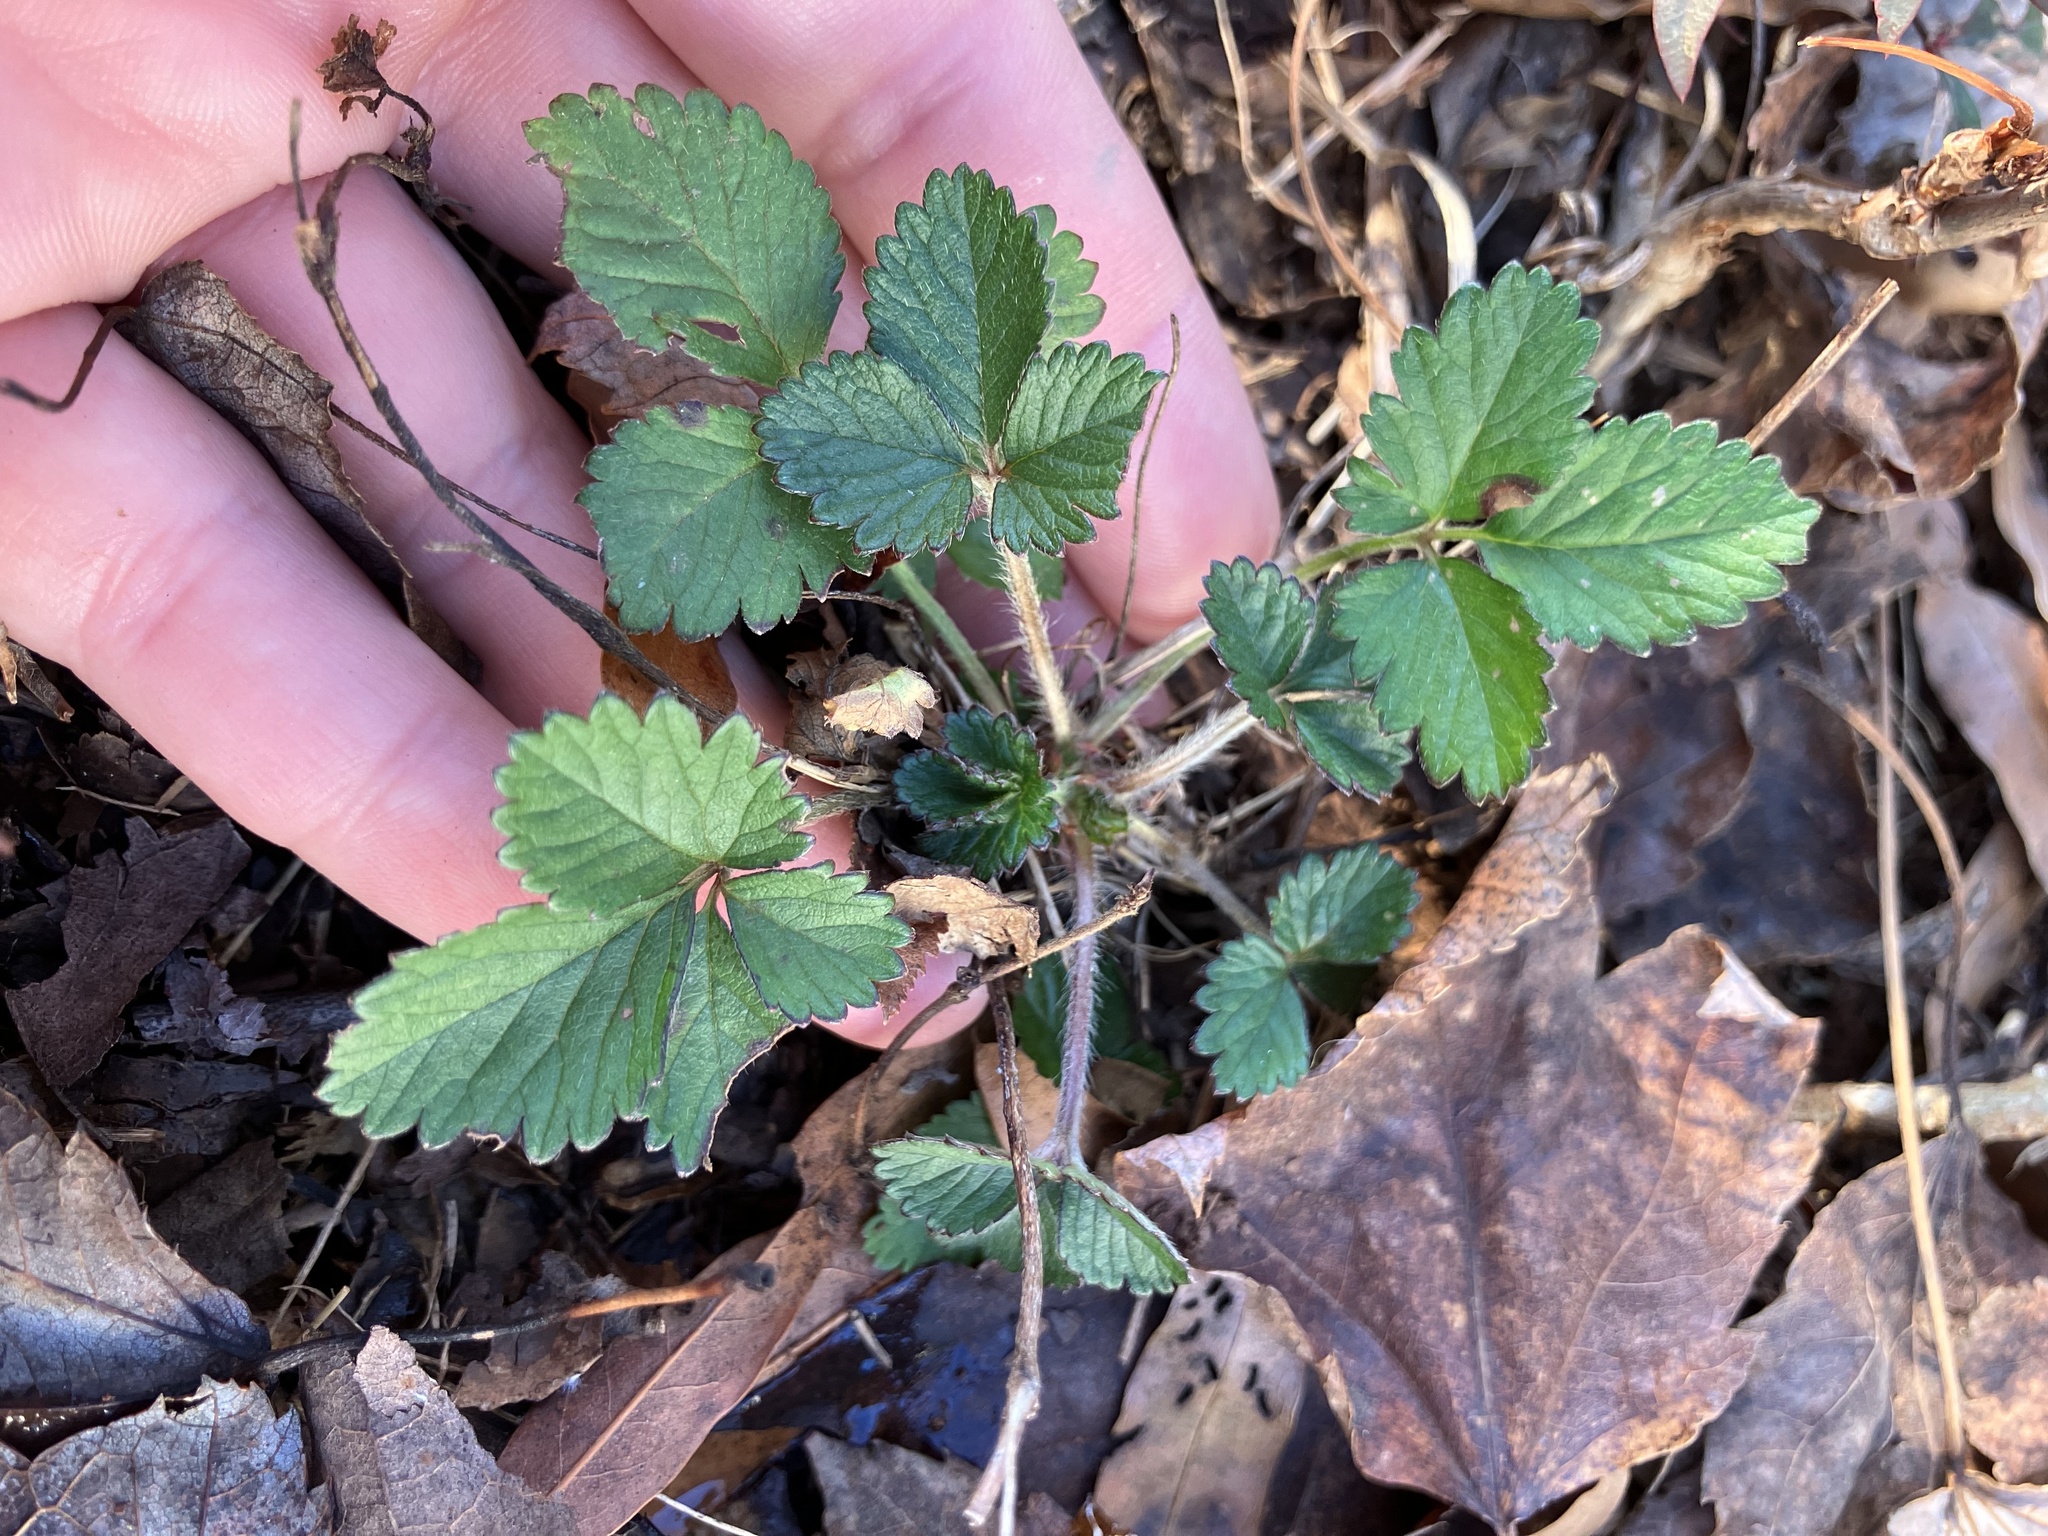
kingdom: Plantae
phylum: Tracheophyta
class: Magnoliopsida
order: Rosales
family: Rosaceae
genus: Potentilla
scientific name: Potentilla indica
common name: Yellow-flowered strawberry
